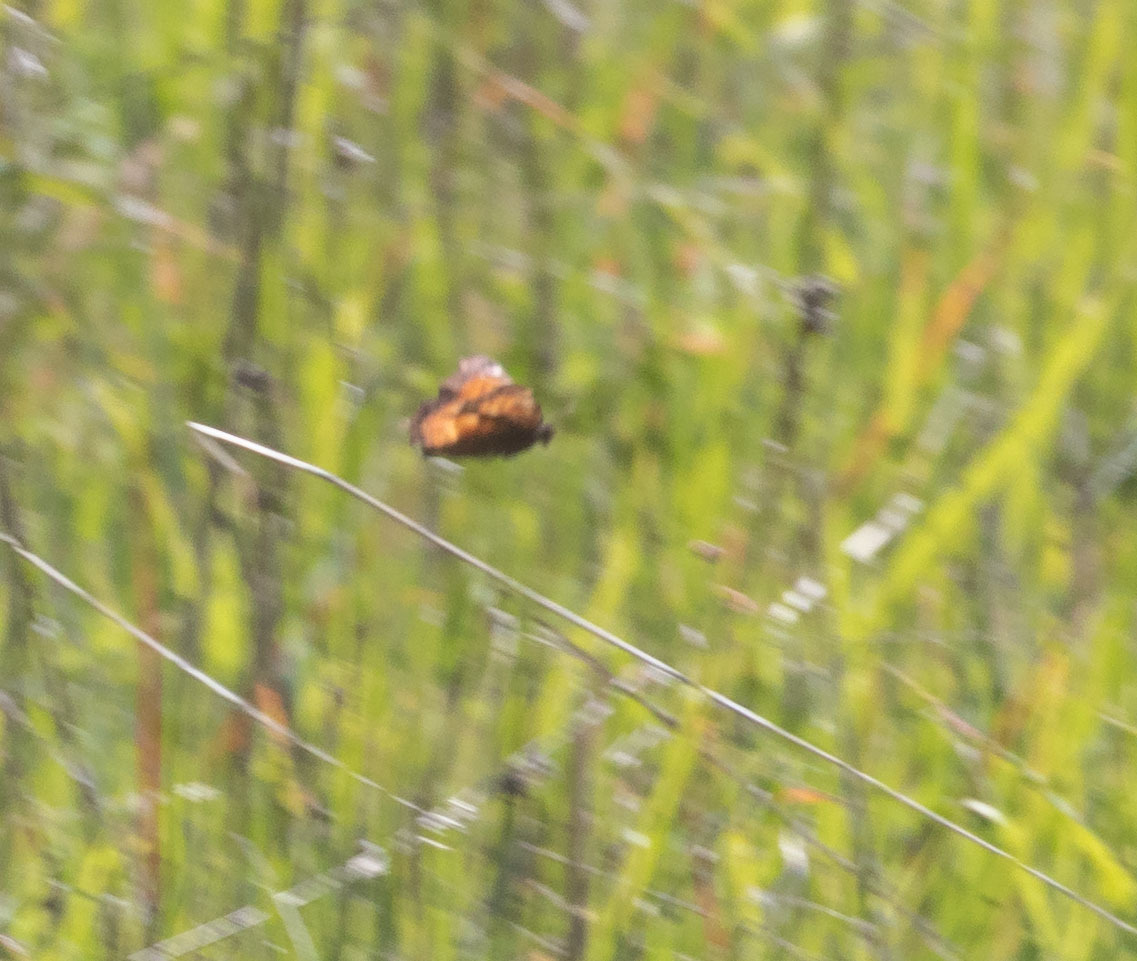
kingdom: Animalia
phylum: Arthropoda
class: Insecta
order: Lepidoptera
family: Nymphalidae
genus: Nymphalis
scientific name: Nymphalis californica
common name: California tortoiseshell
